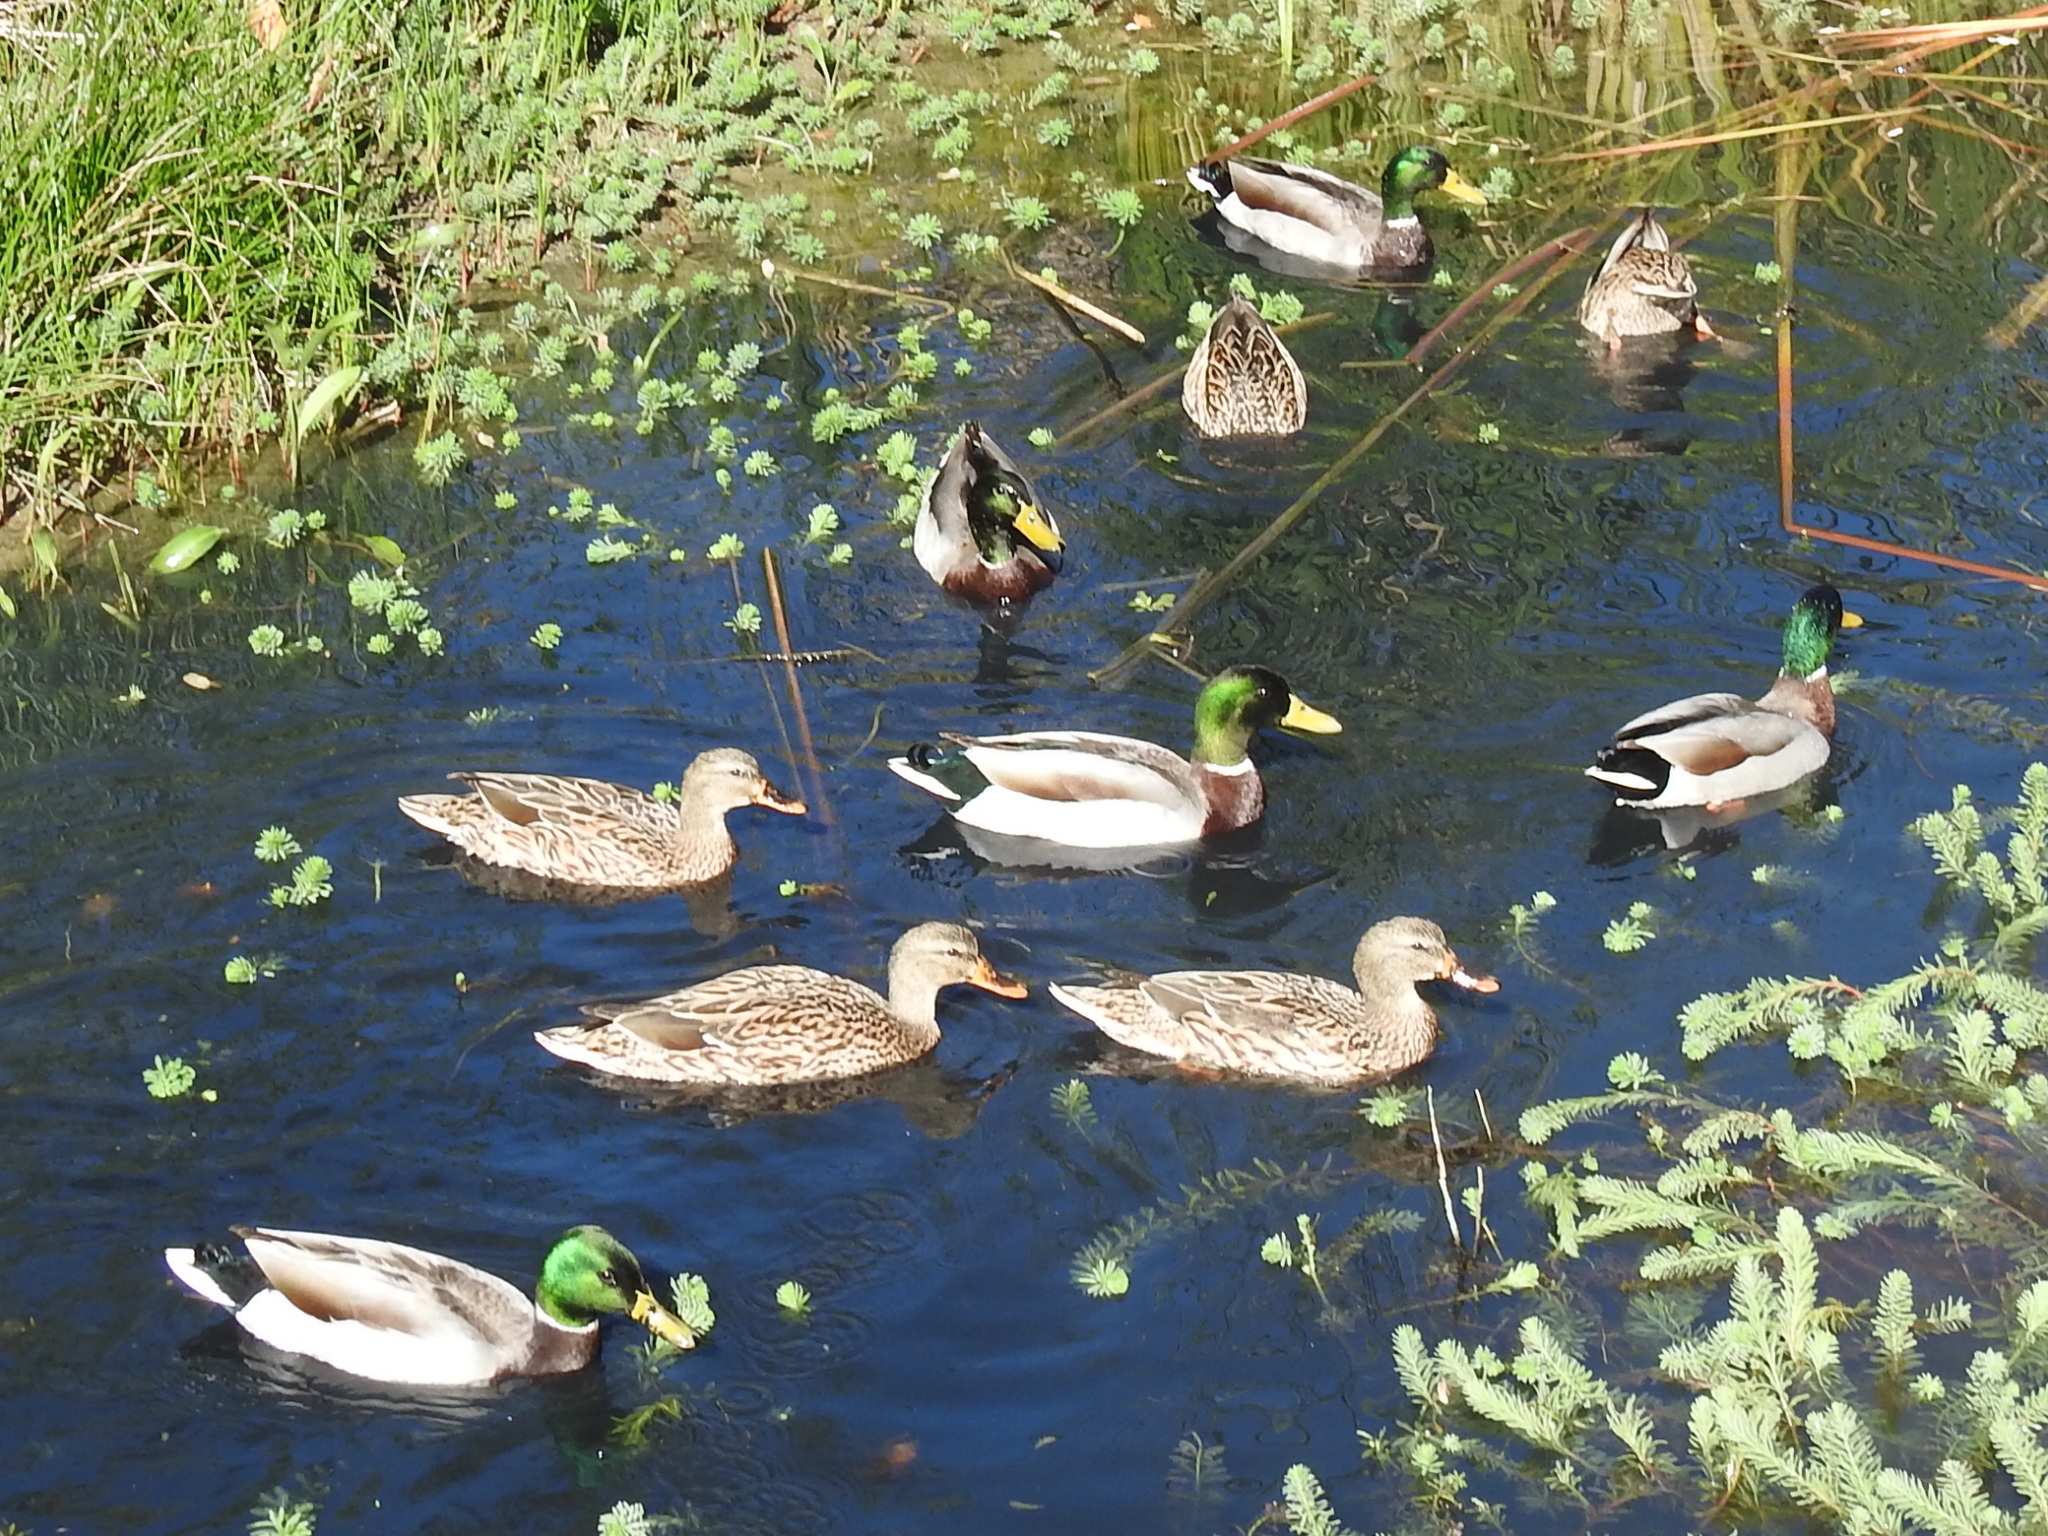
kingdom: Animalia
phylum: Chordata
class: Aves
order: Anseriformes
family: Anatidae
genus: Anas
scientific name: Anas platyrhynchos
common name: Mallard
